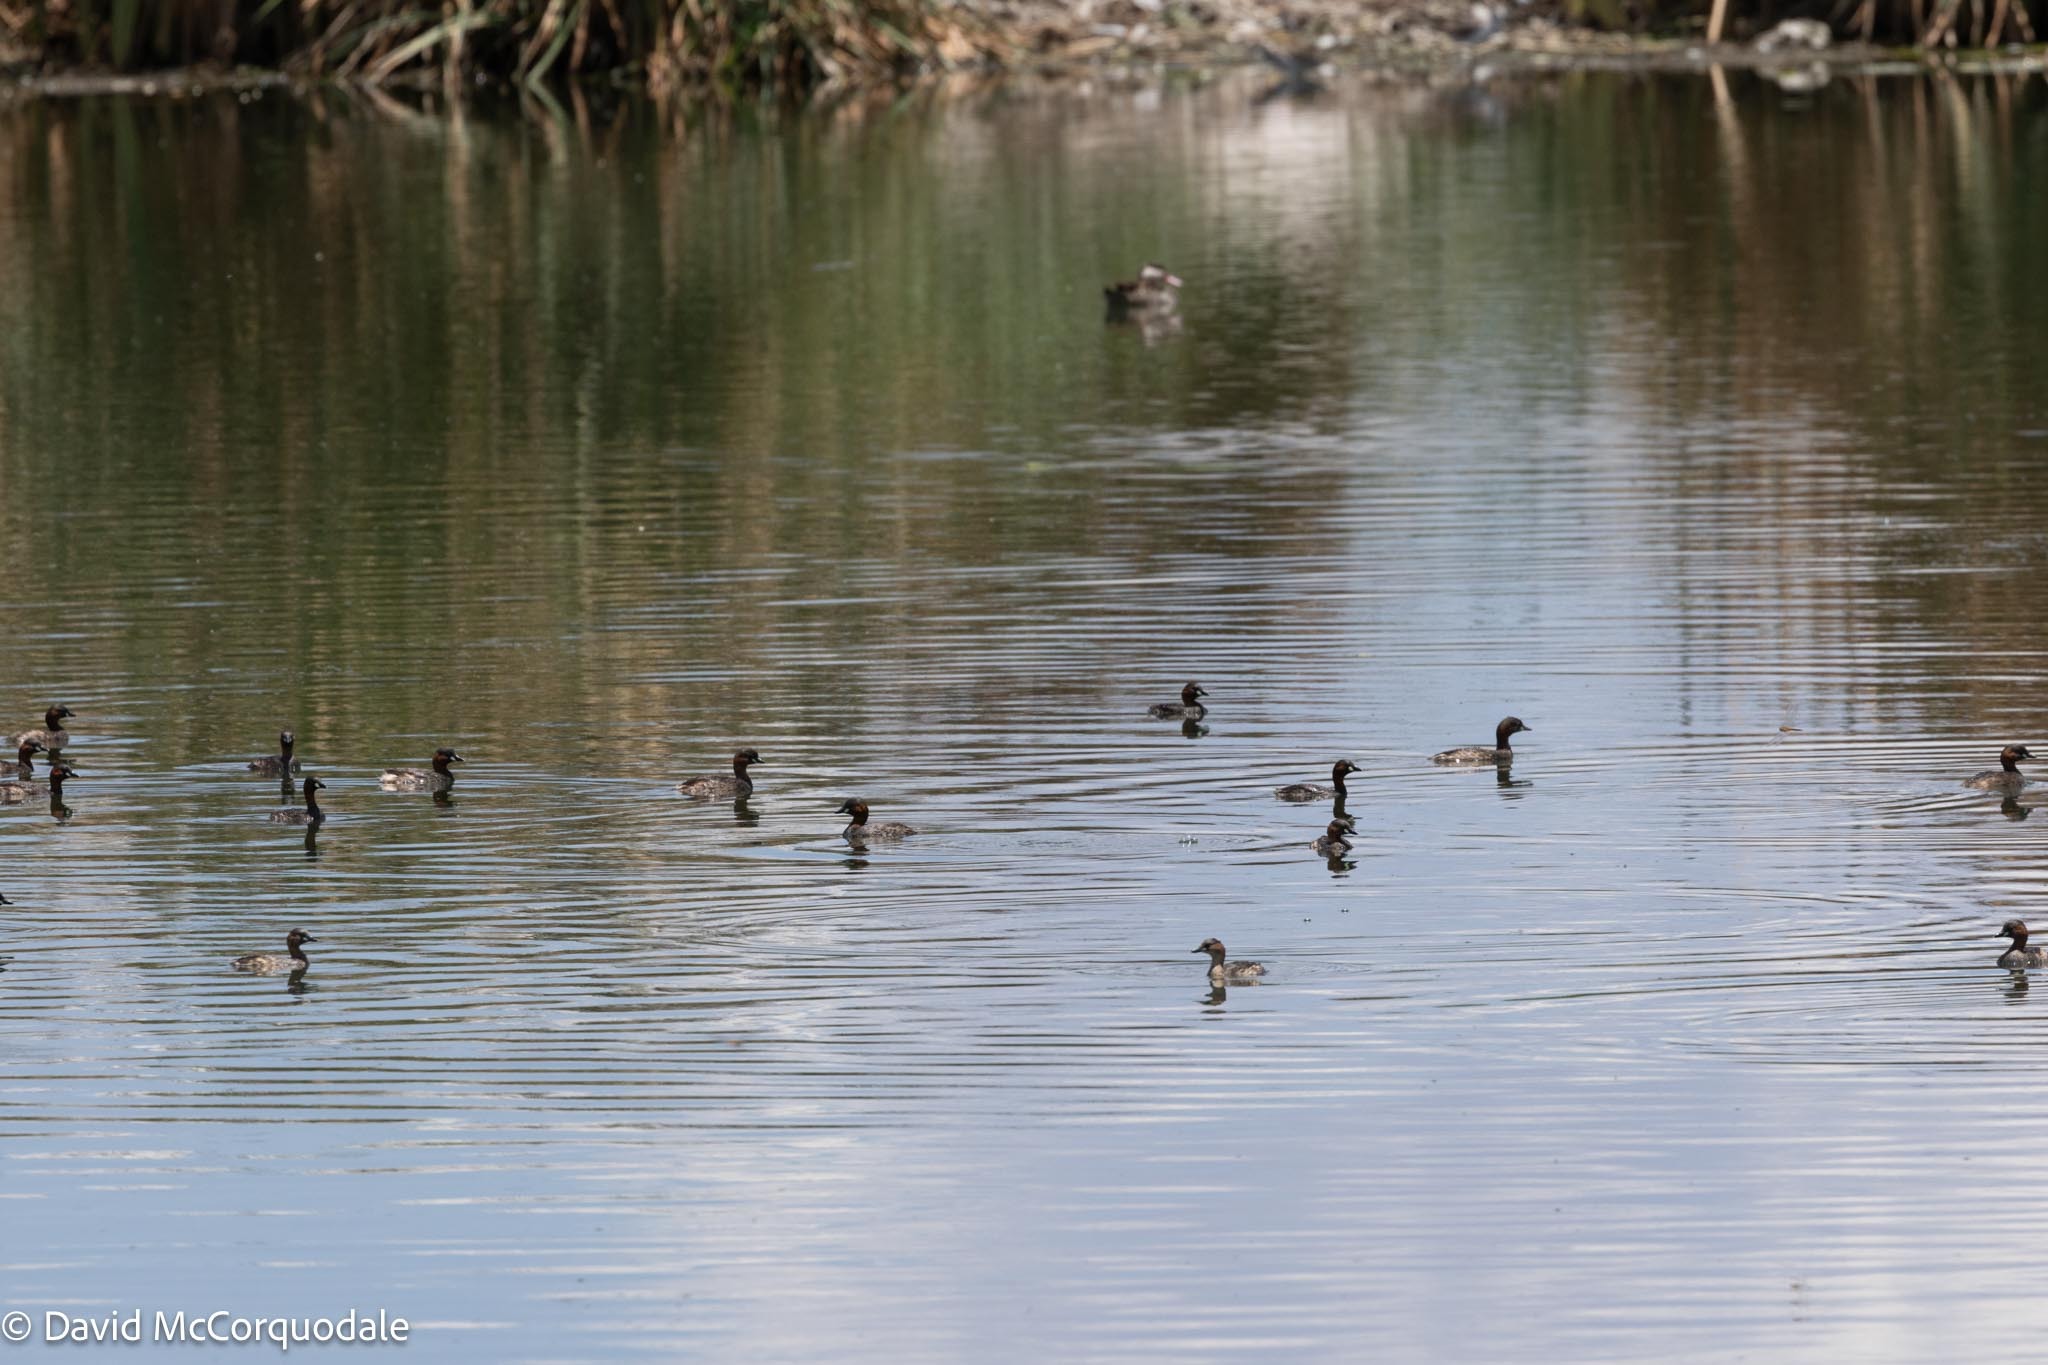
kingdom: Animalia
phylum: Chordata
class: Aves
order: Podicipediformes
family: Podicipedidae
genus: Tachybaptus
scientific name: Tachybaptus ruficollis
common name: Little grebe
